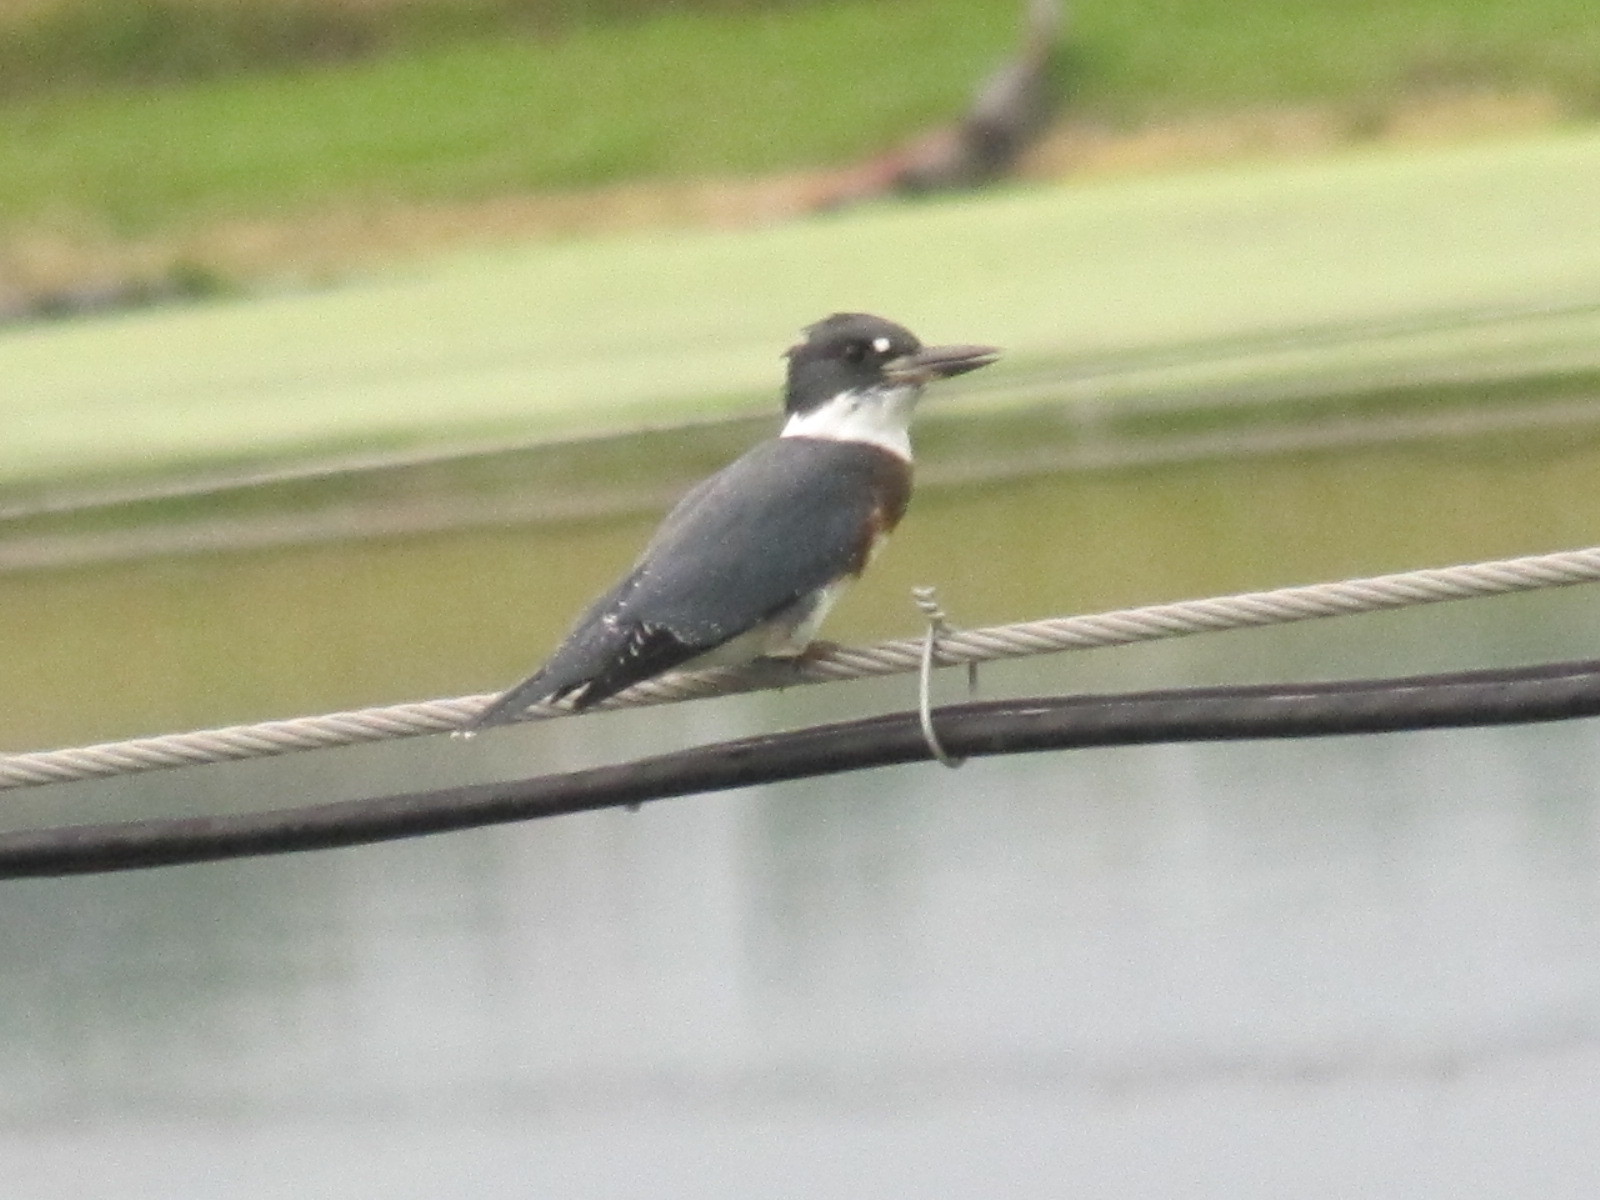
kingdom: Animalia
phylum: Chordata
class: Aves
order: Coraciiformes
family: Alcedinidae
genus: Megaceryle
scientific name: Megaceryle alcyon
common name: Belted kingfisher
